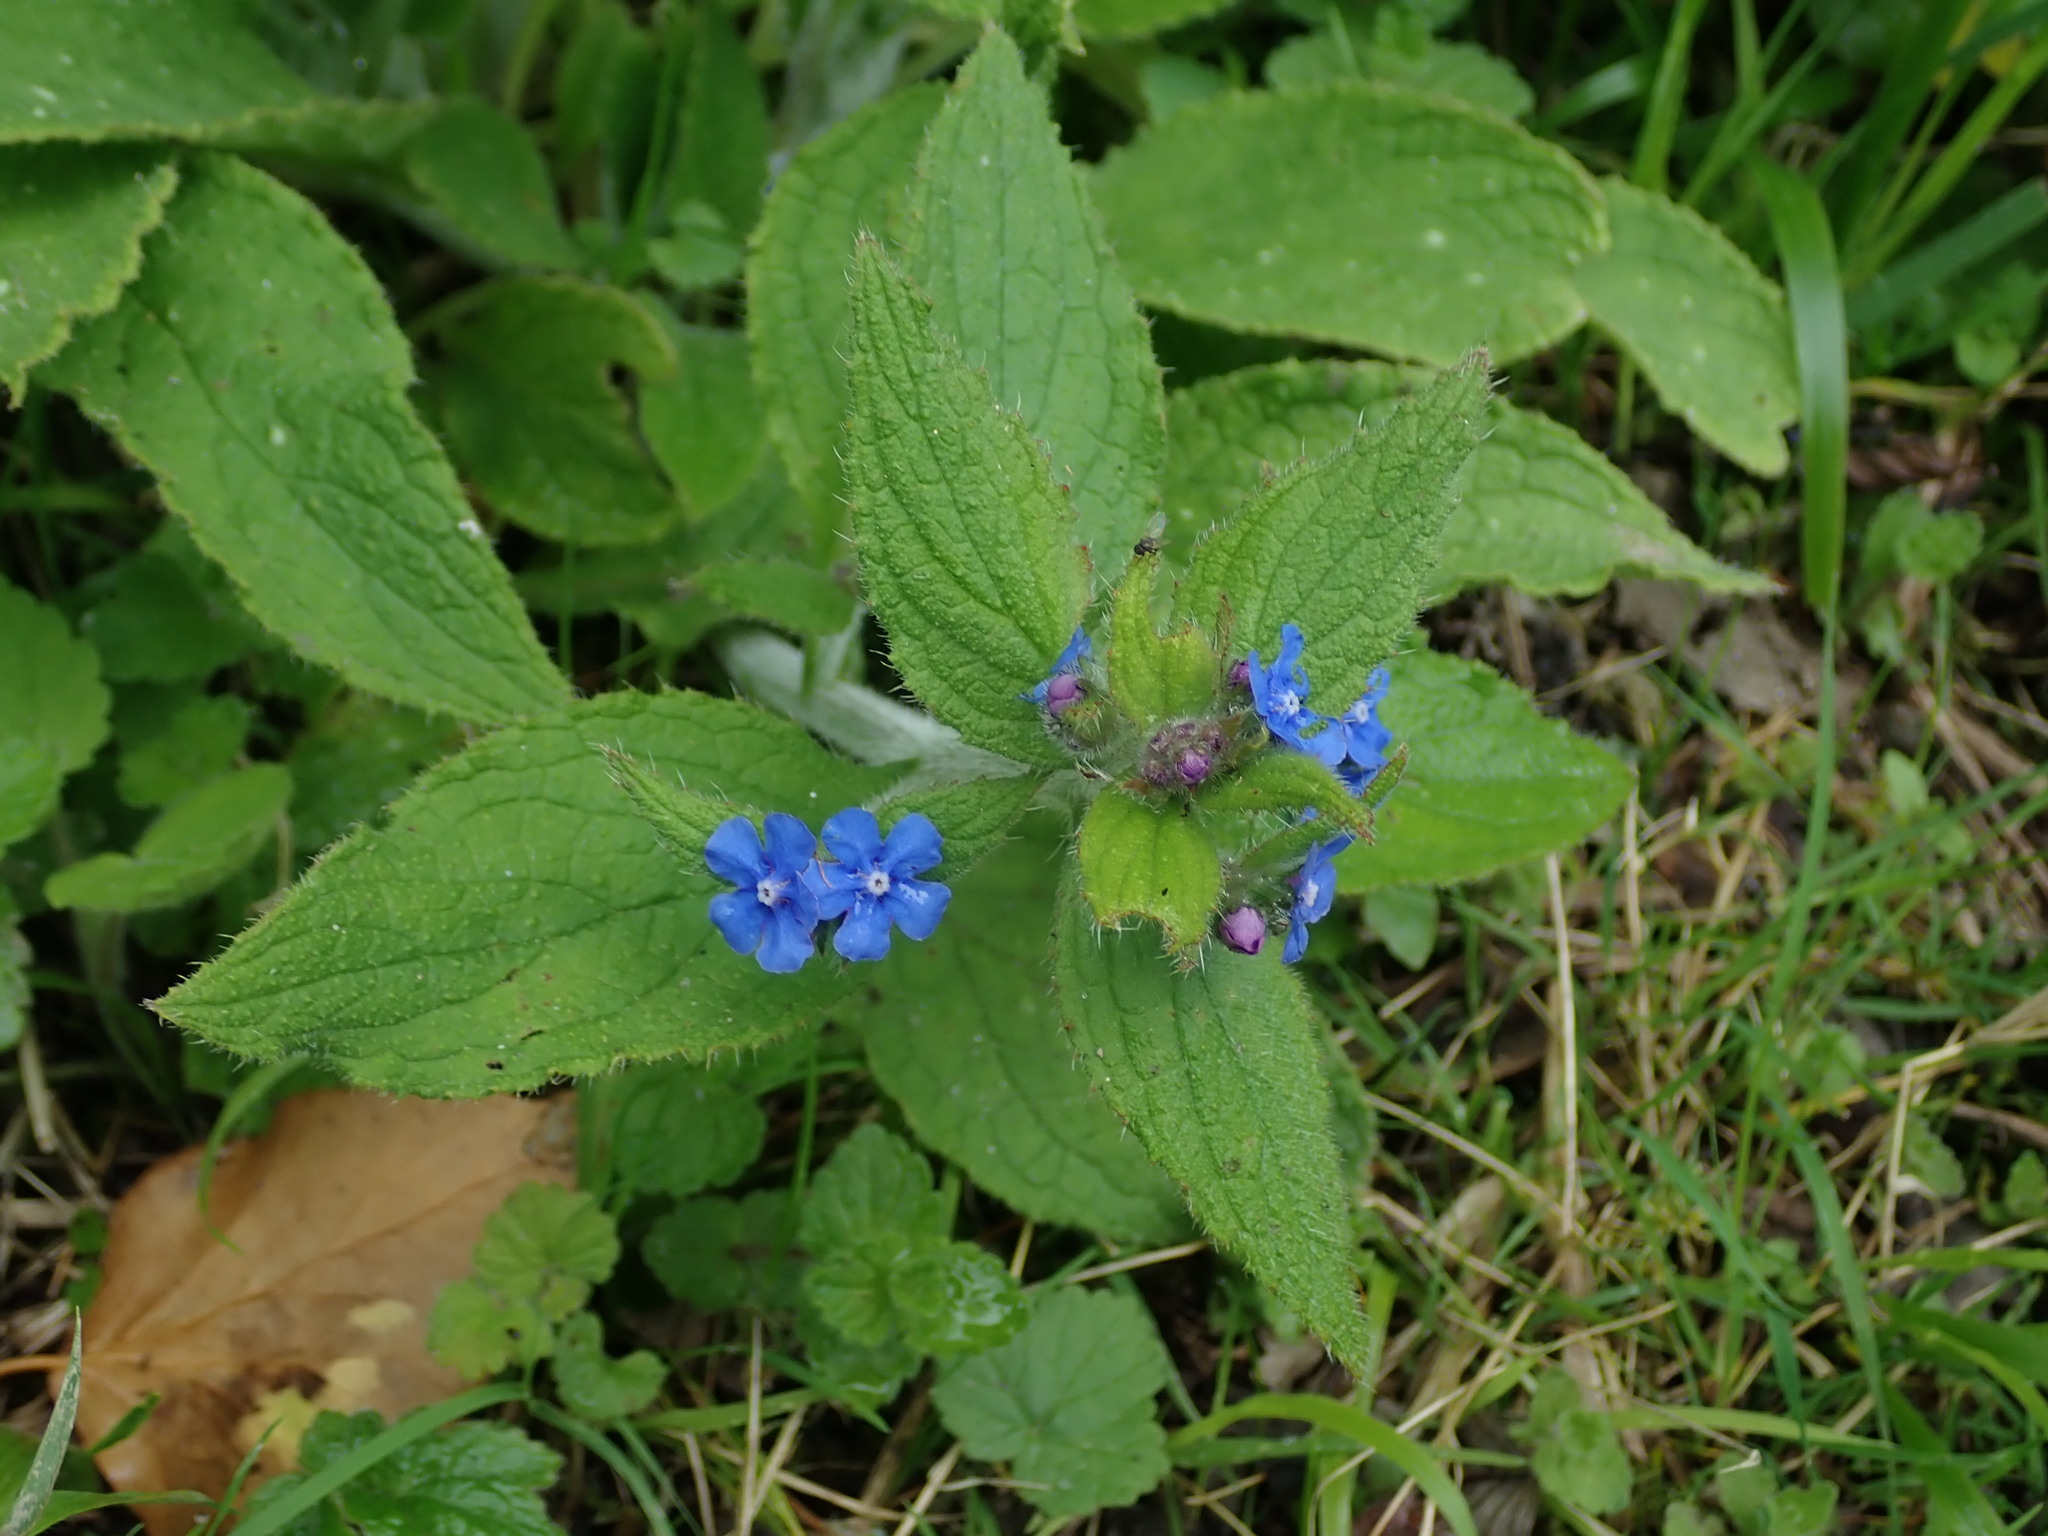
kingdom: Plantae
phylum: Tracheophyta
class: Magnoliopsida
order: Boraginales
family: Boraginaceae
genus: Pentaglottis
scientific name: Pentaglottis sempervirens
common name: Green alkanet
